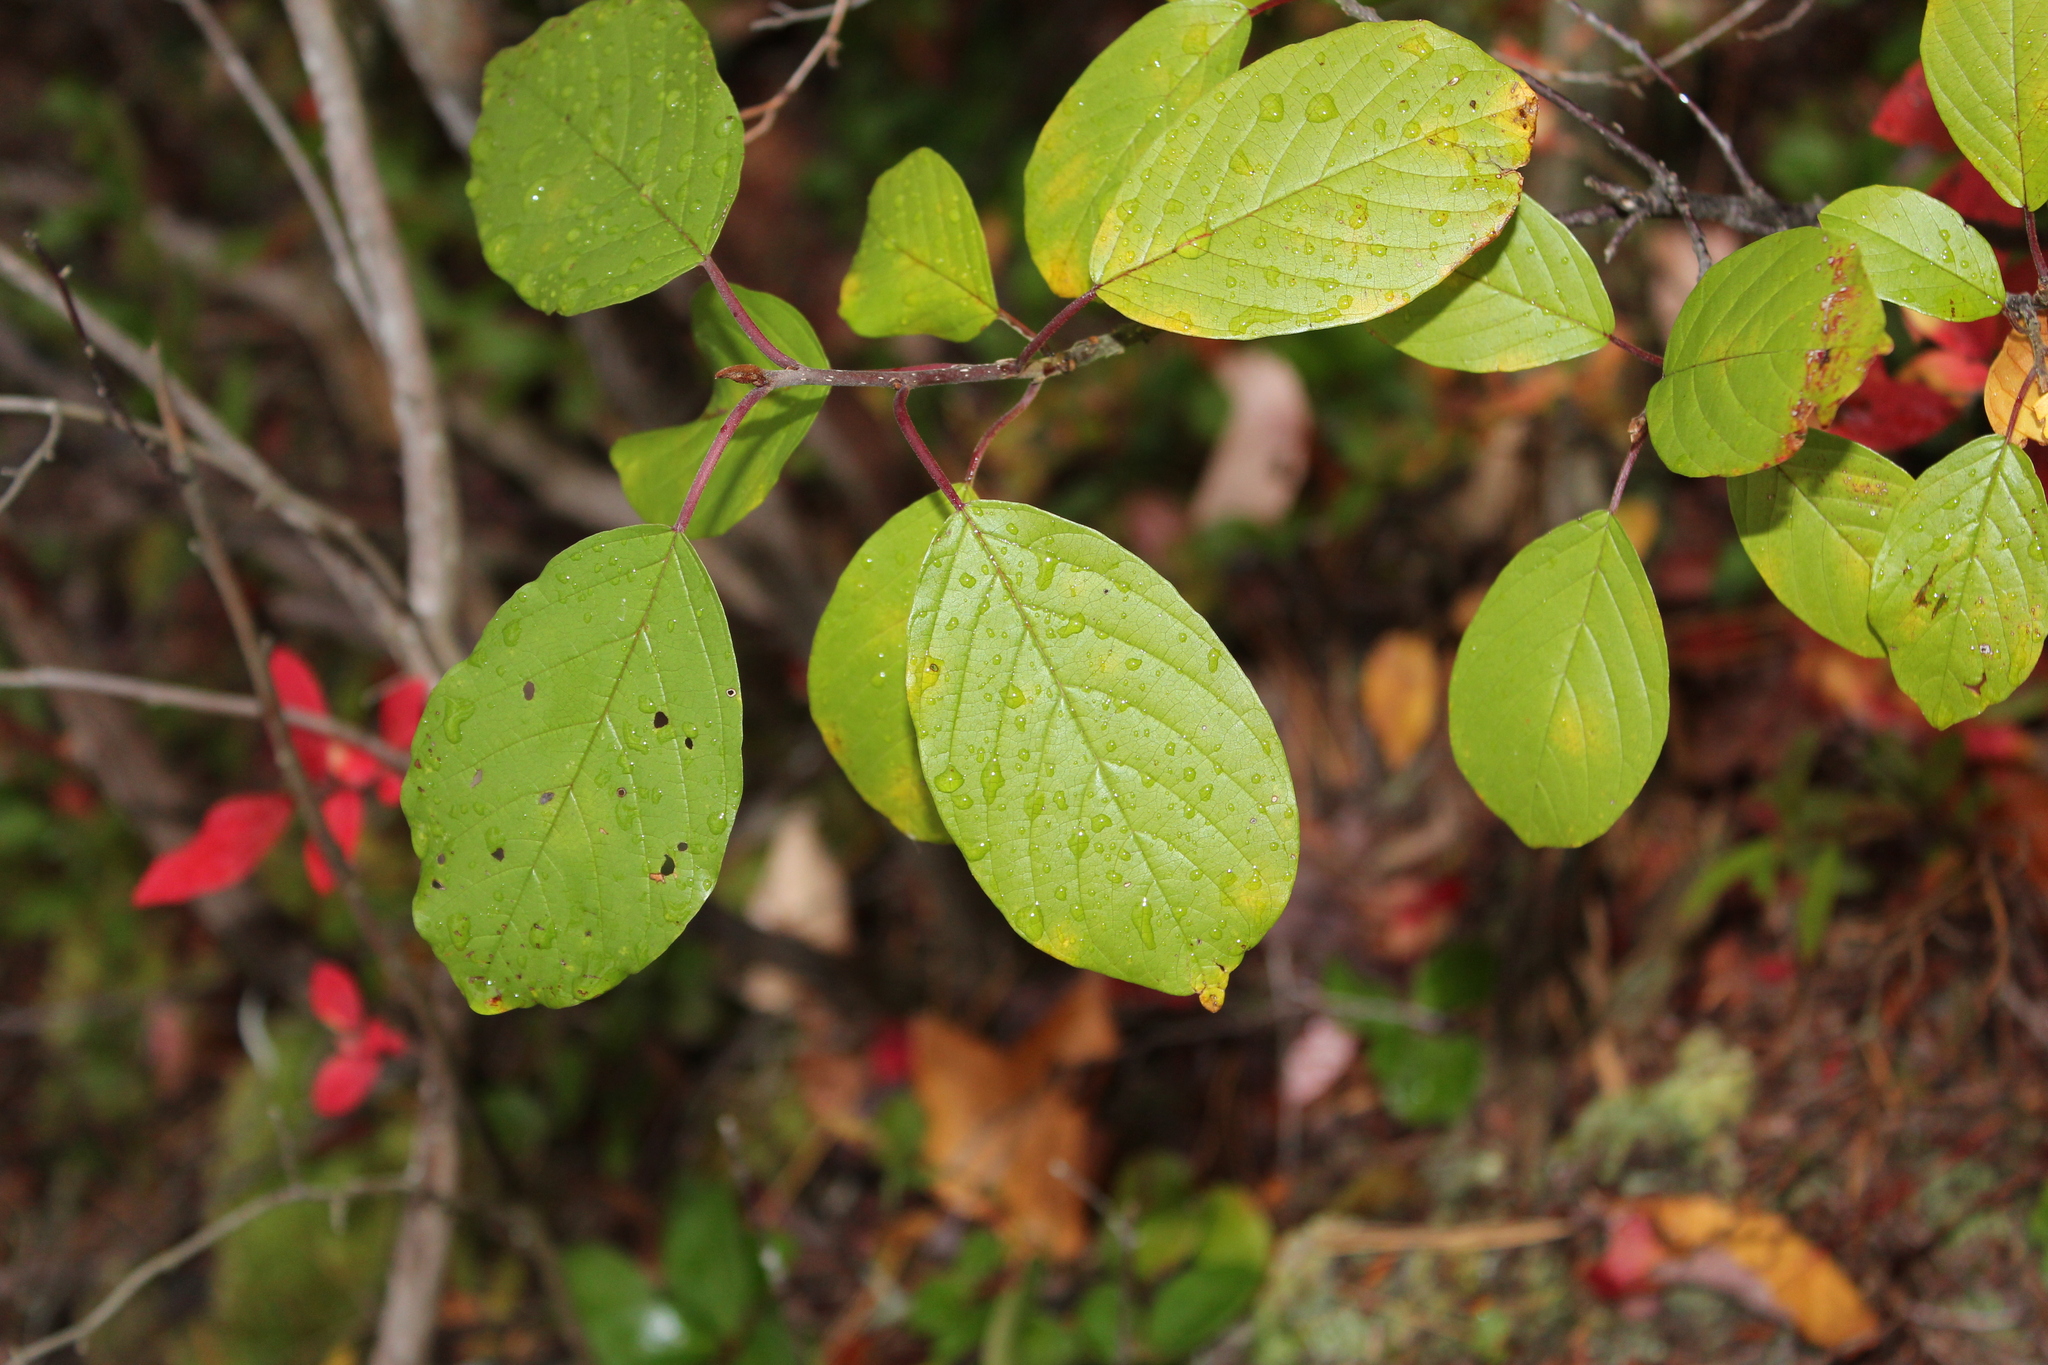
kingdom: Plantae
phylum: Tracheophyta
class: Magnoliopsida
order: Rosales
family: Rhamnaceae
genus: Frangula
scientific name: Frangula alnus
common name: Alder buckthorn
